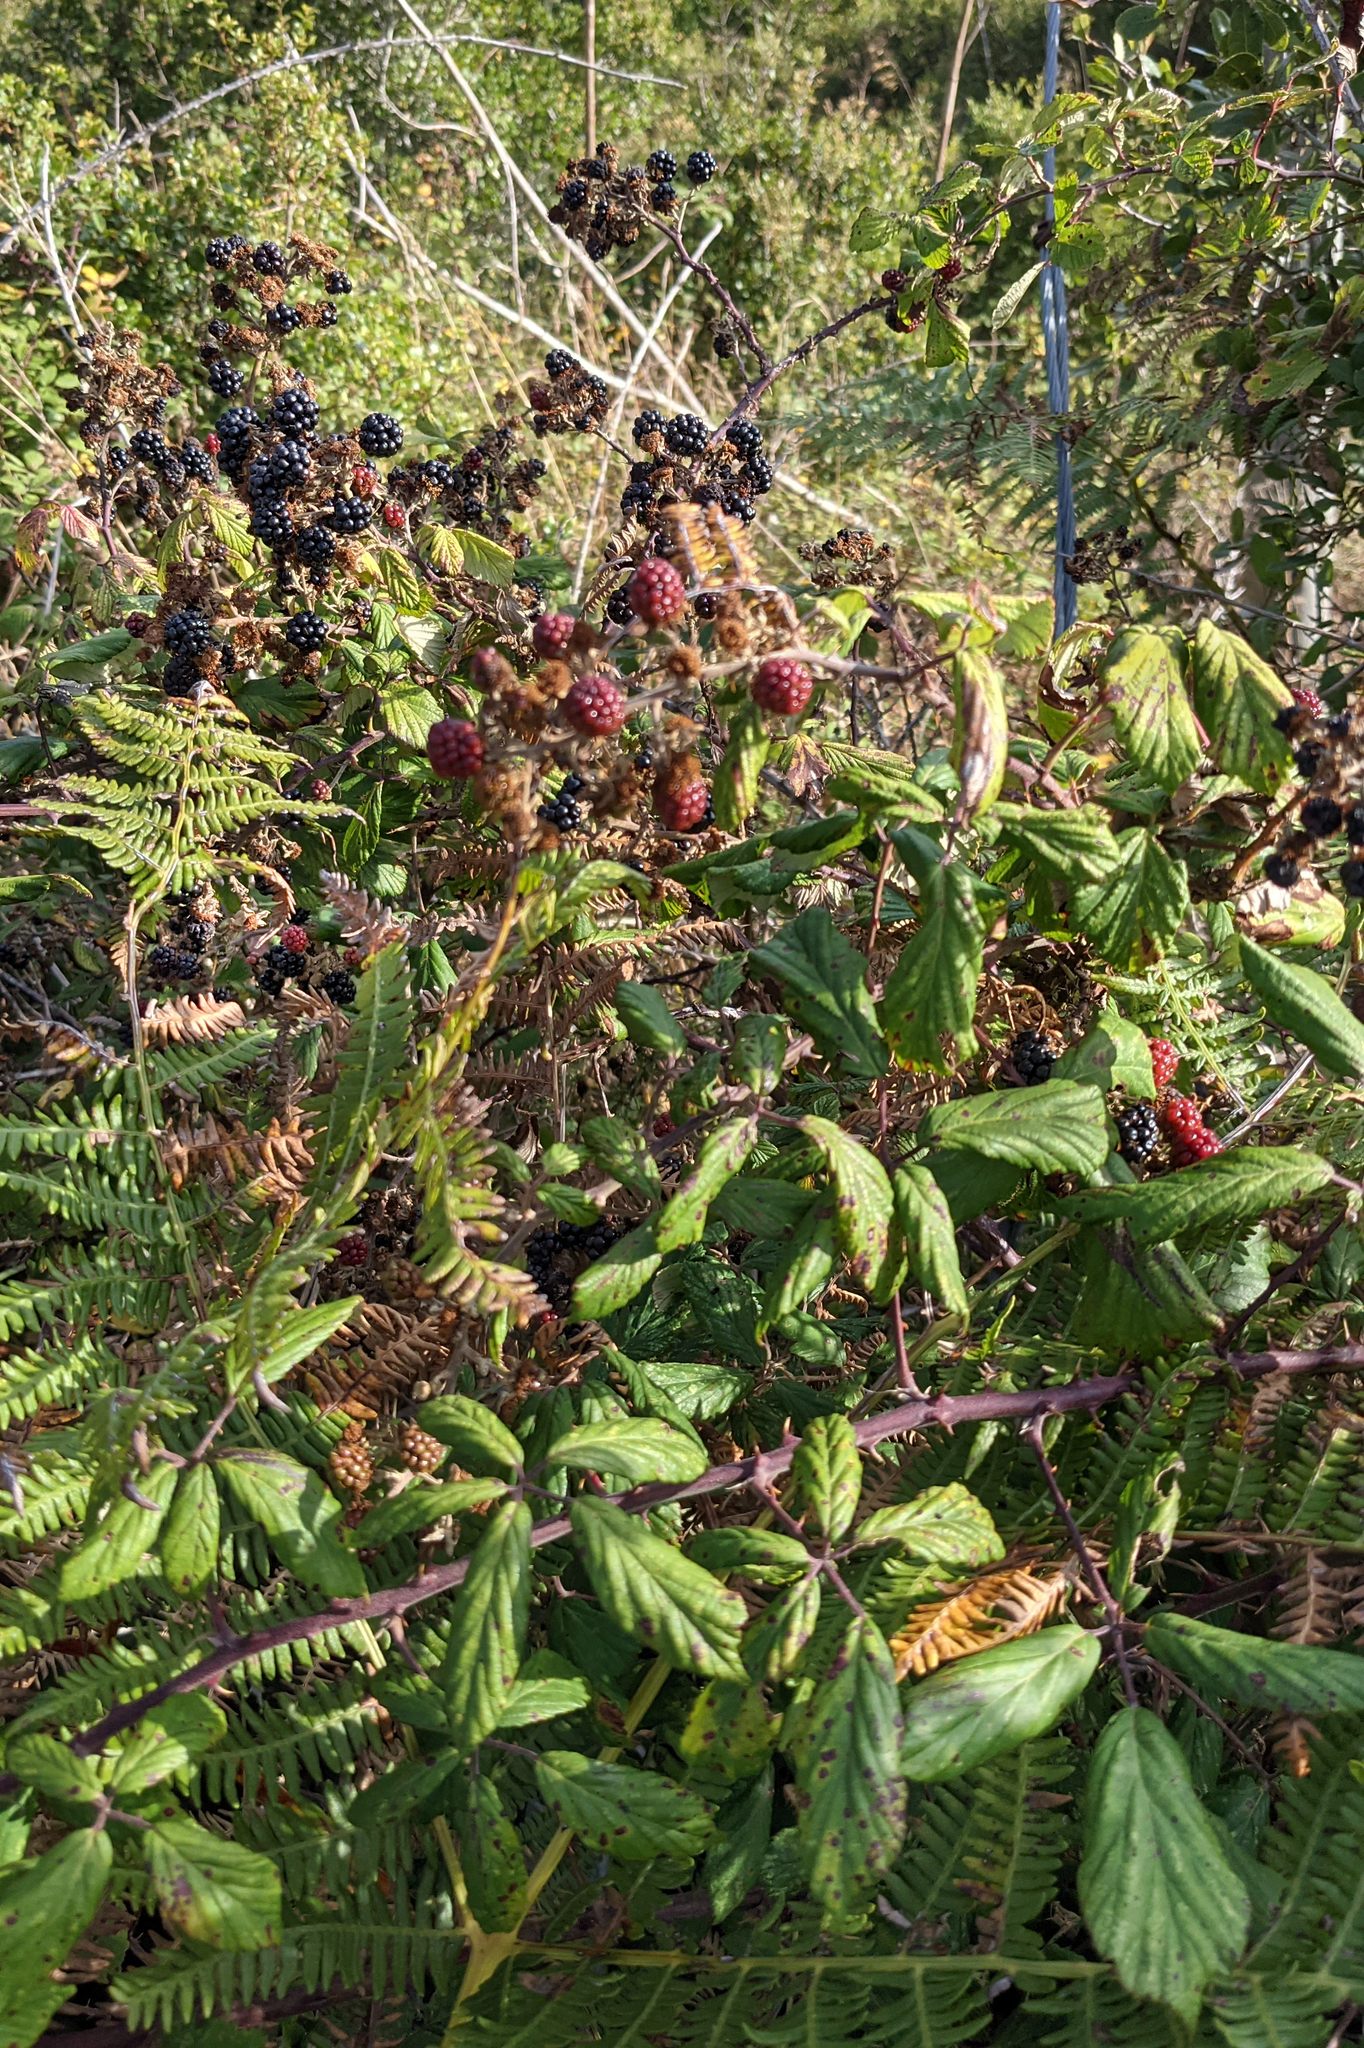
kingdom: Plantae
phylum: Tracheophyta
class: Magnoliopsida
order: Rosales
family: Rosaceae
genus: Rubus
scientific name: Rubus ulmifolius
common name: Elmleaf blackberry
